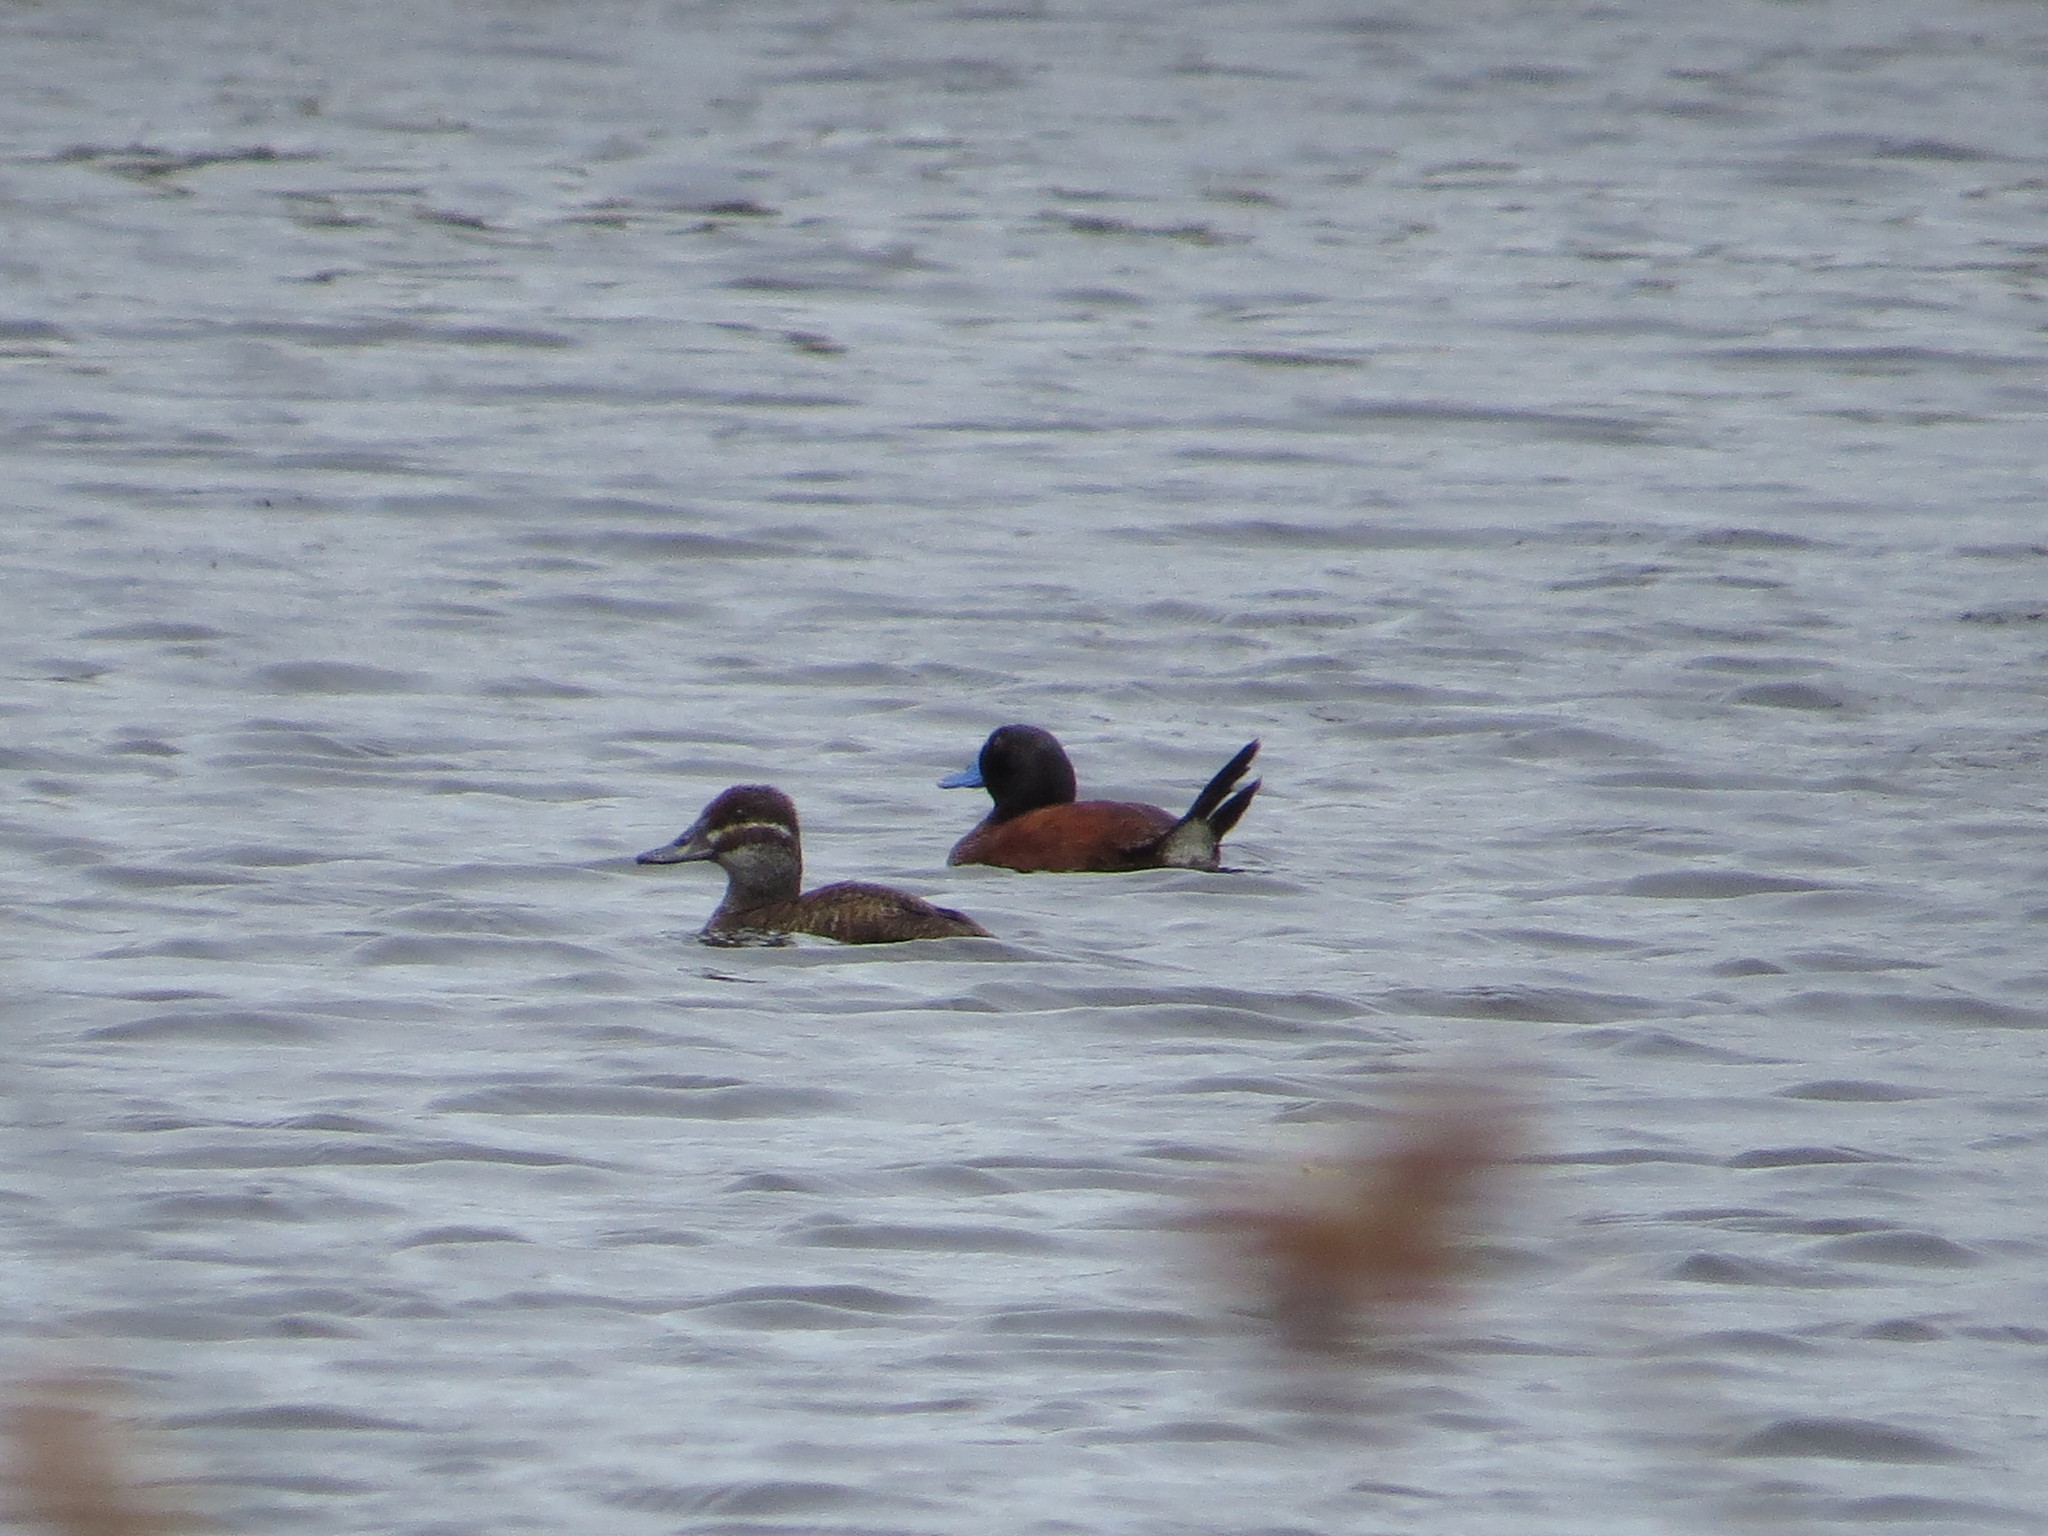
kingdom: Animalia
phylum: Chordata
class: Aves
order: Anseriformes
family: Anatidae
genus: Oxyura
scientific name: Oxyura vittata
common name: Lake duck
